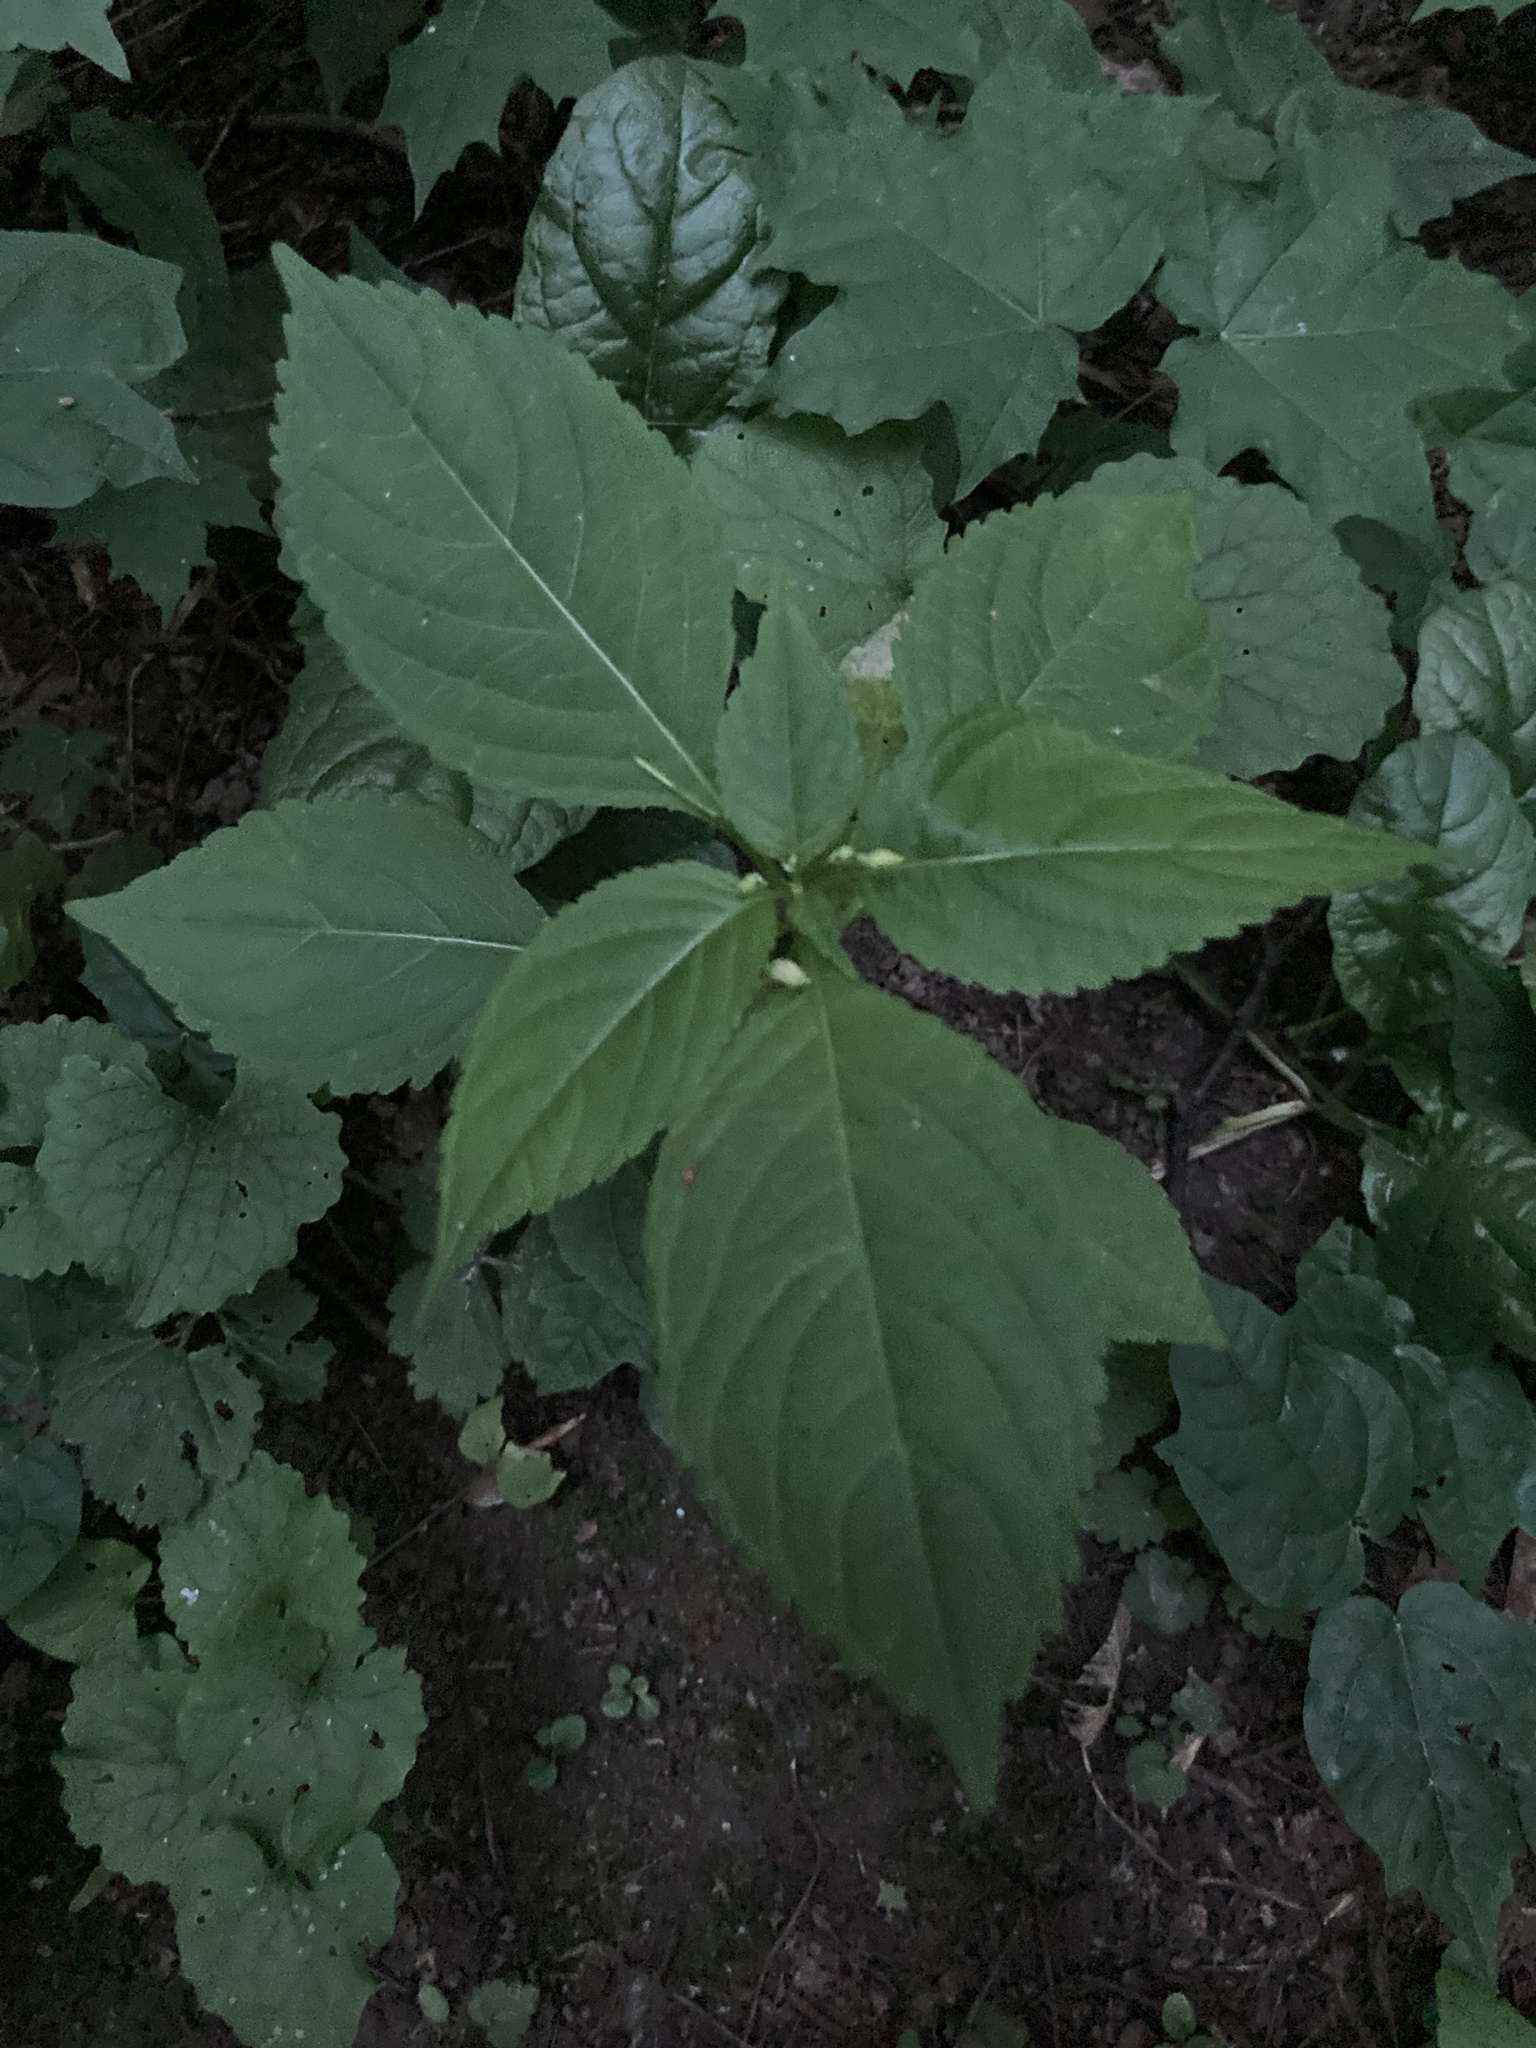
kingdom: Plantae
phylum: Tracheophyta
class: Magnoliopsida
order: Ericales
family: Balsaminaceae
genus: Impatiens
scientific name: Impatiens parviflora
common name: Small balsam
